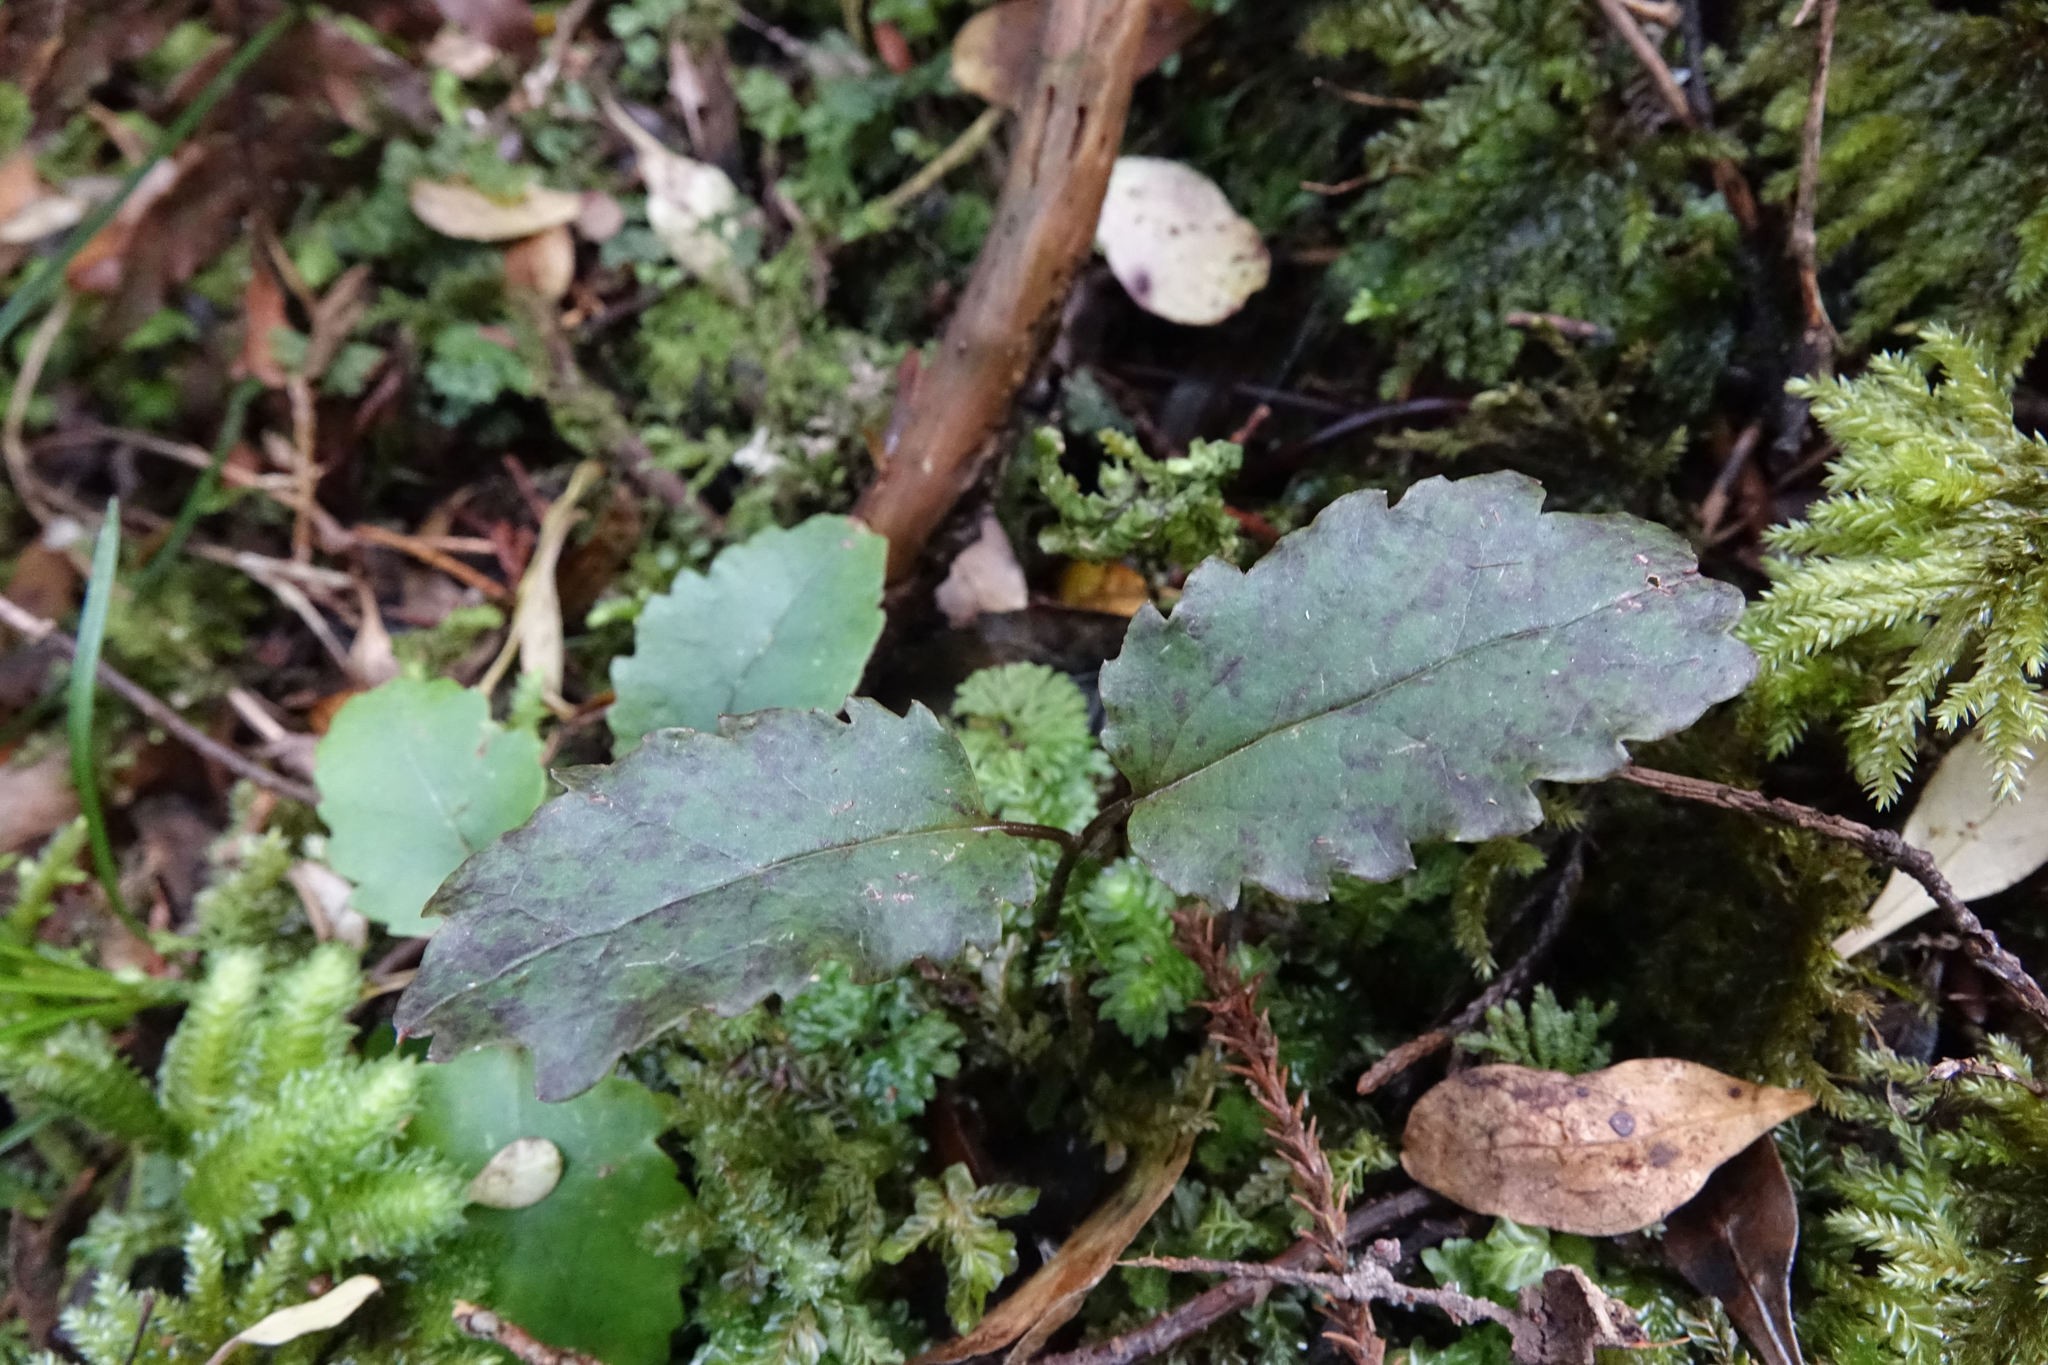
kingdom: Plantae
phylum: Tracheophyta
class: Magnoliopsida
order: Ranunculales
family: Ranunculaceae
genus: Clematis
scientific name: Clematis paniculata
